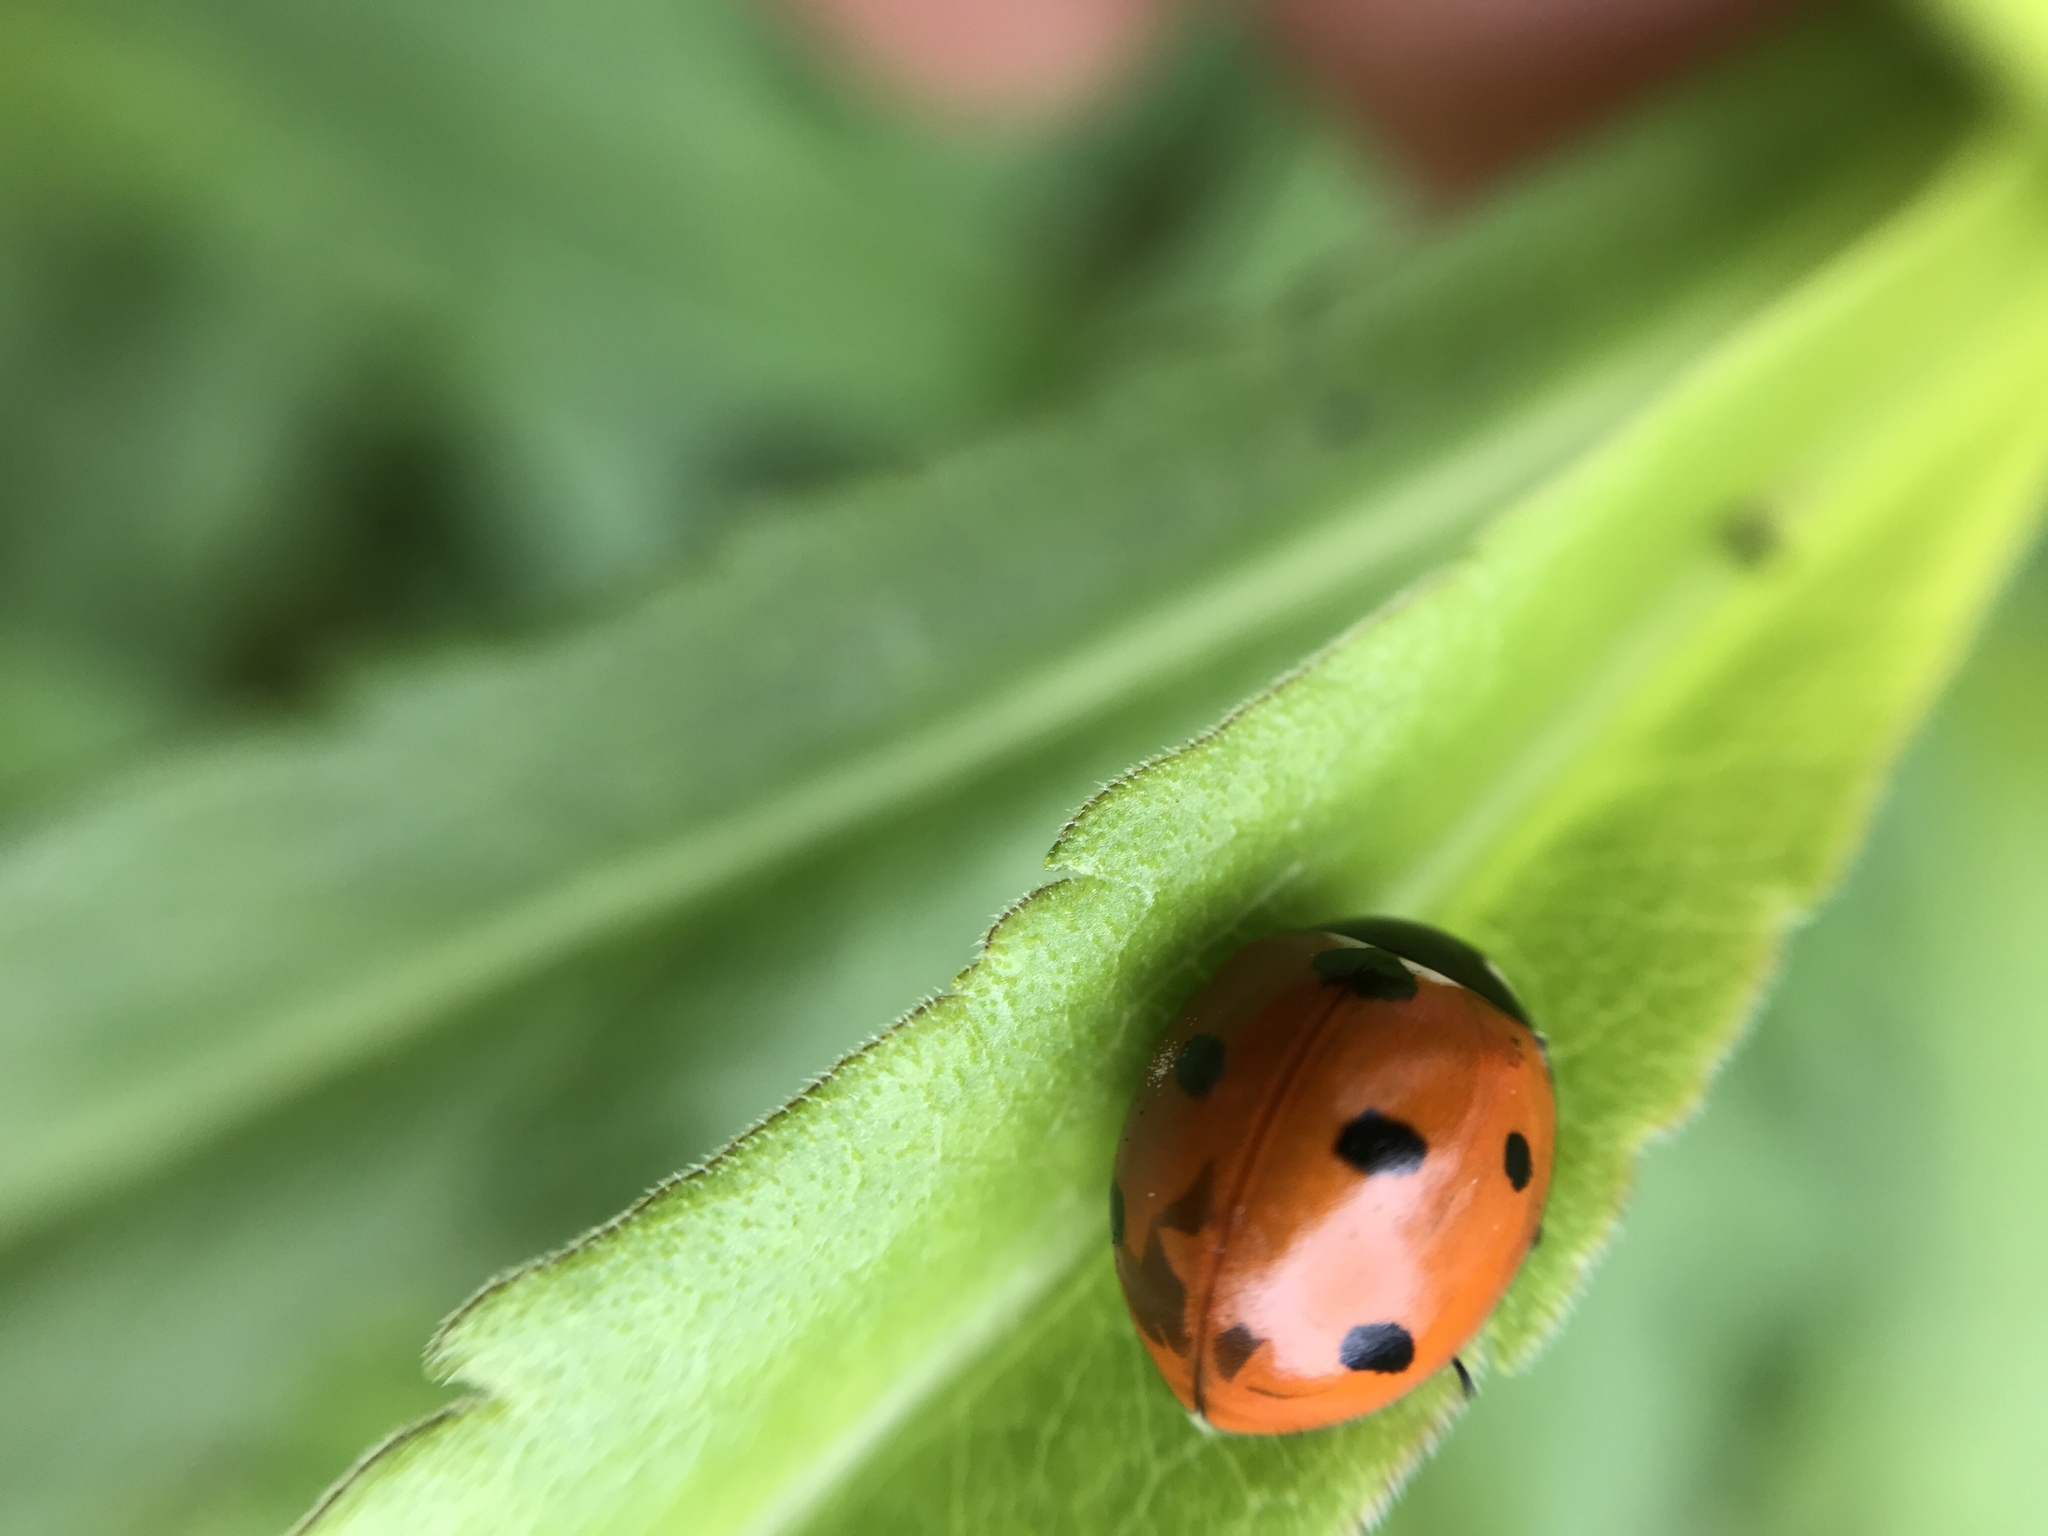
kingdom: Animalia
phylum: Arthropoda
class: Insecta
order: Coleoptera
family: Coccinellidae
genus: Coccinella
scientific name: Coccinella septempunctata
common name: Sevenspotted lady beetle
